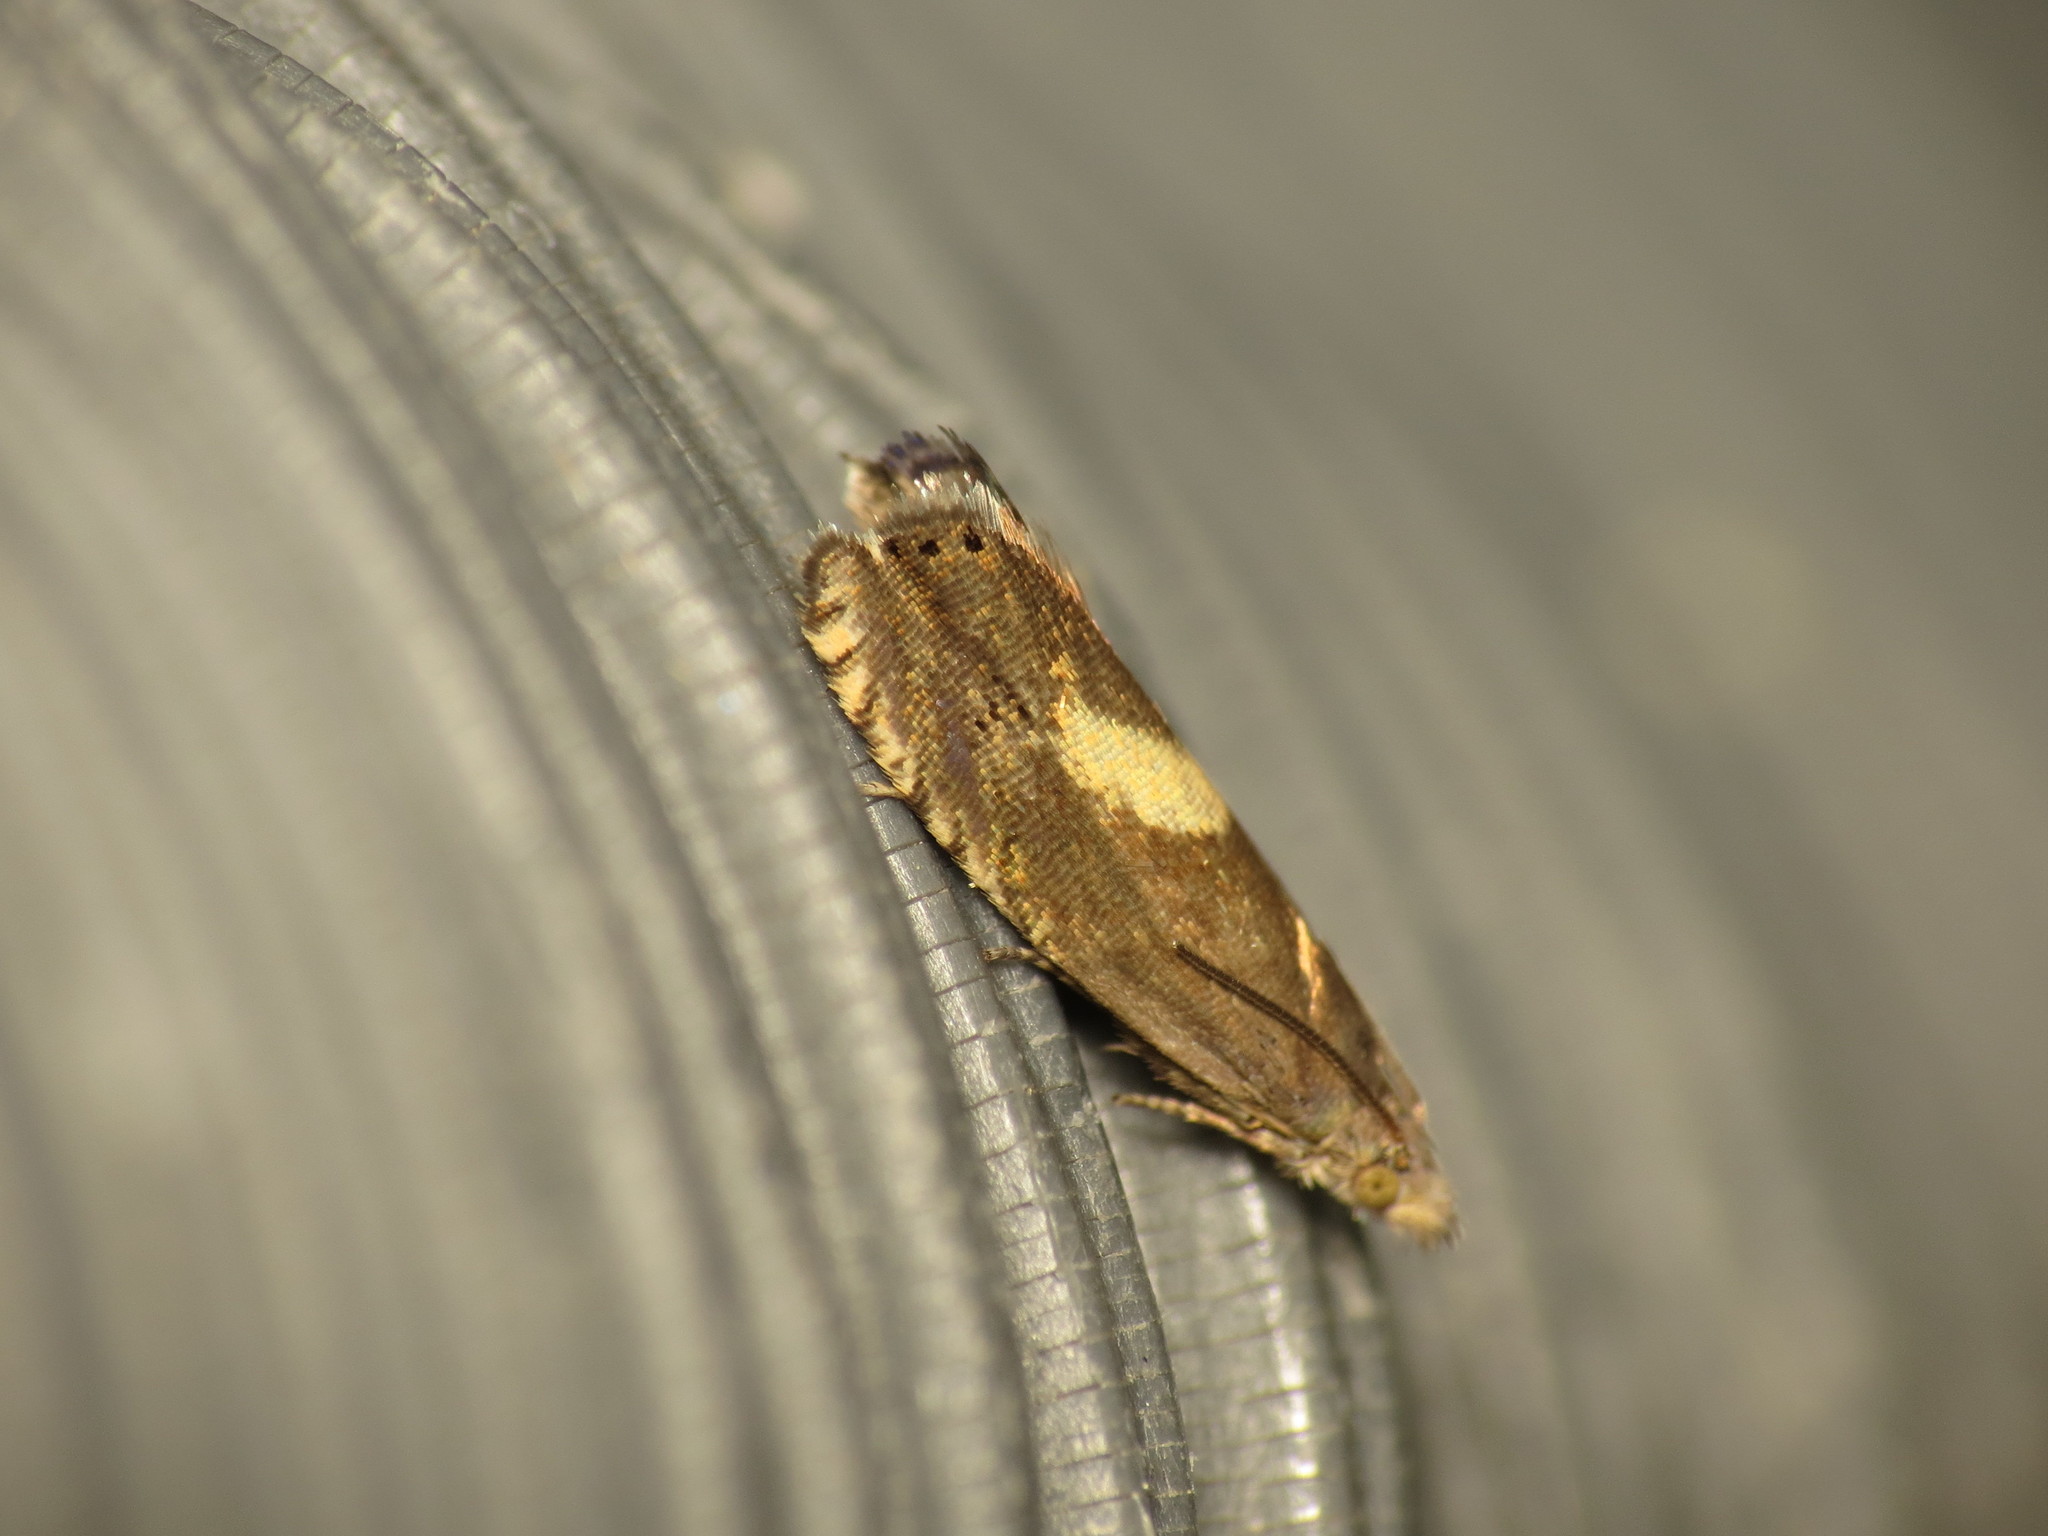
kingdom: Animalia
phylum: Arthropoda
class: Insecta
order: Lepidoptera
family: Tortricidae
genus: Dichrorampha
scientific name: Dichrorampha petiverella
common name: Common drill
